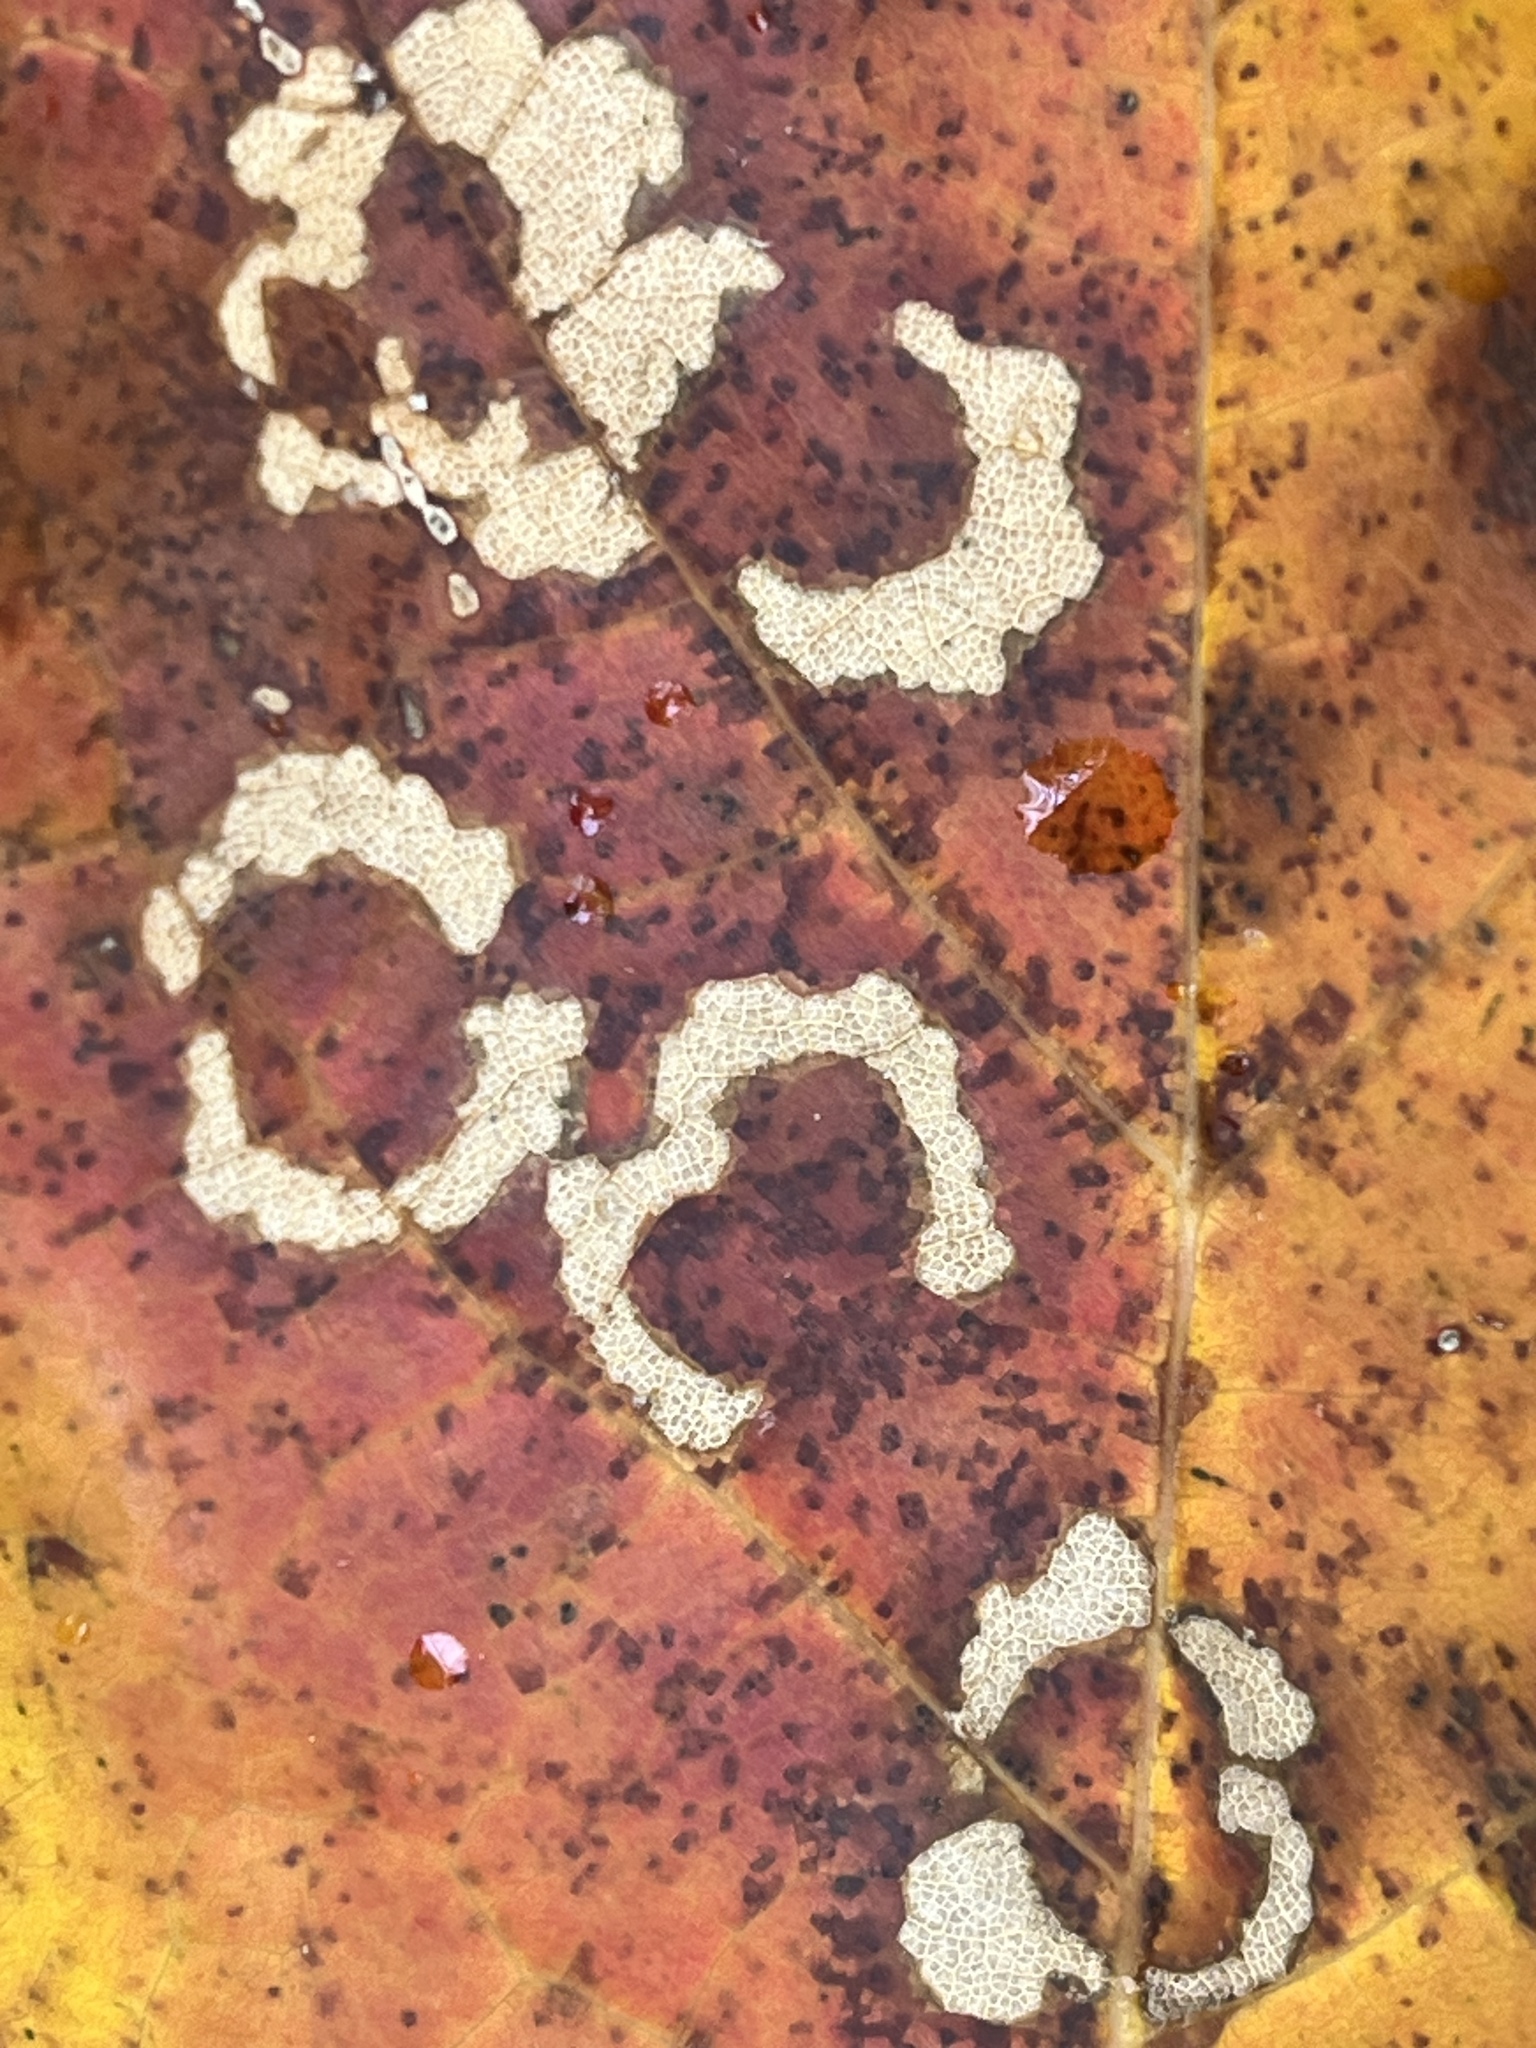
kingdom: Animalia
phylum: Arthropoda
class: Insecta
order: Lepidoptera
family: Incurvariidae
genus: Paraclemensia
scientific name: Paraclemensia acerifoliella
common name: Maple leafcutter
